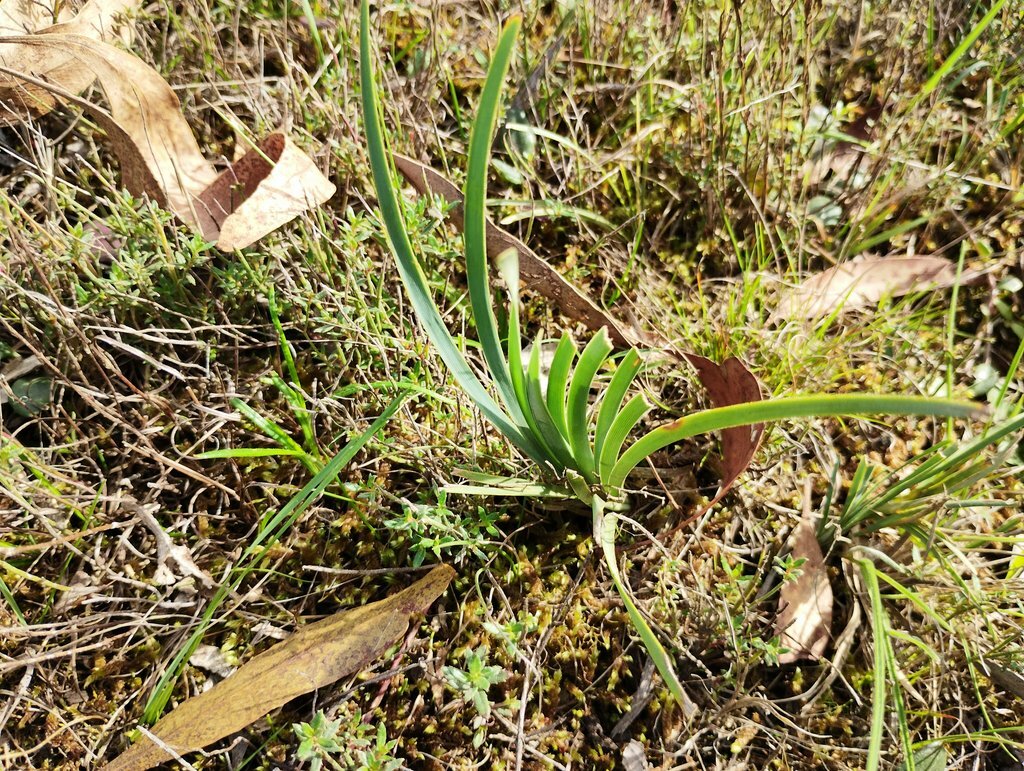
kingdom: Plantae
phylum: Tracheophyta
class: Liliopsida
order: Asparagales
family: Asparagaceae
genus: Lomandra
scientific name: Lomandra filiformis
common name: Wattle mat-rush
